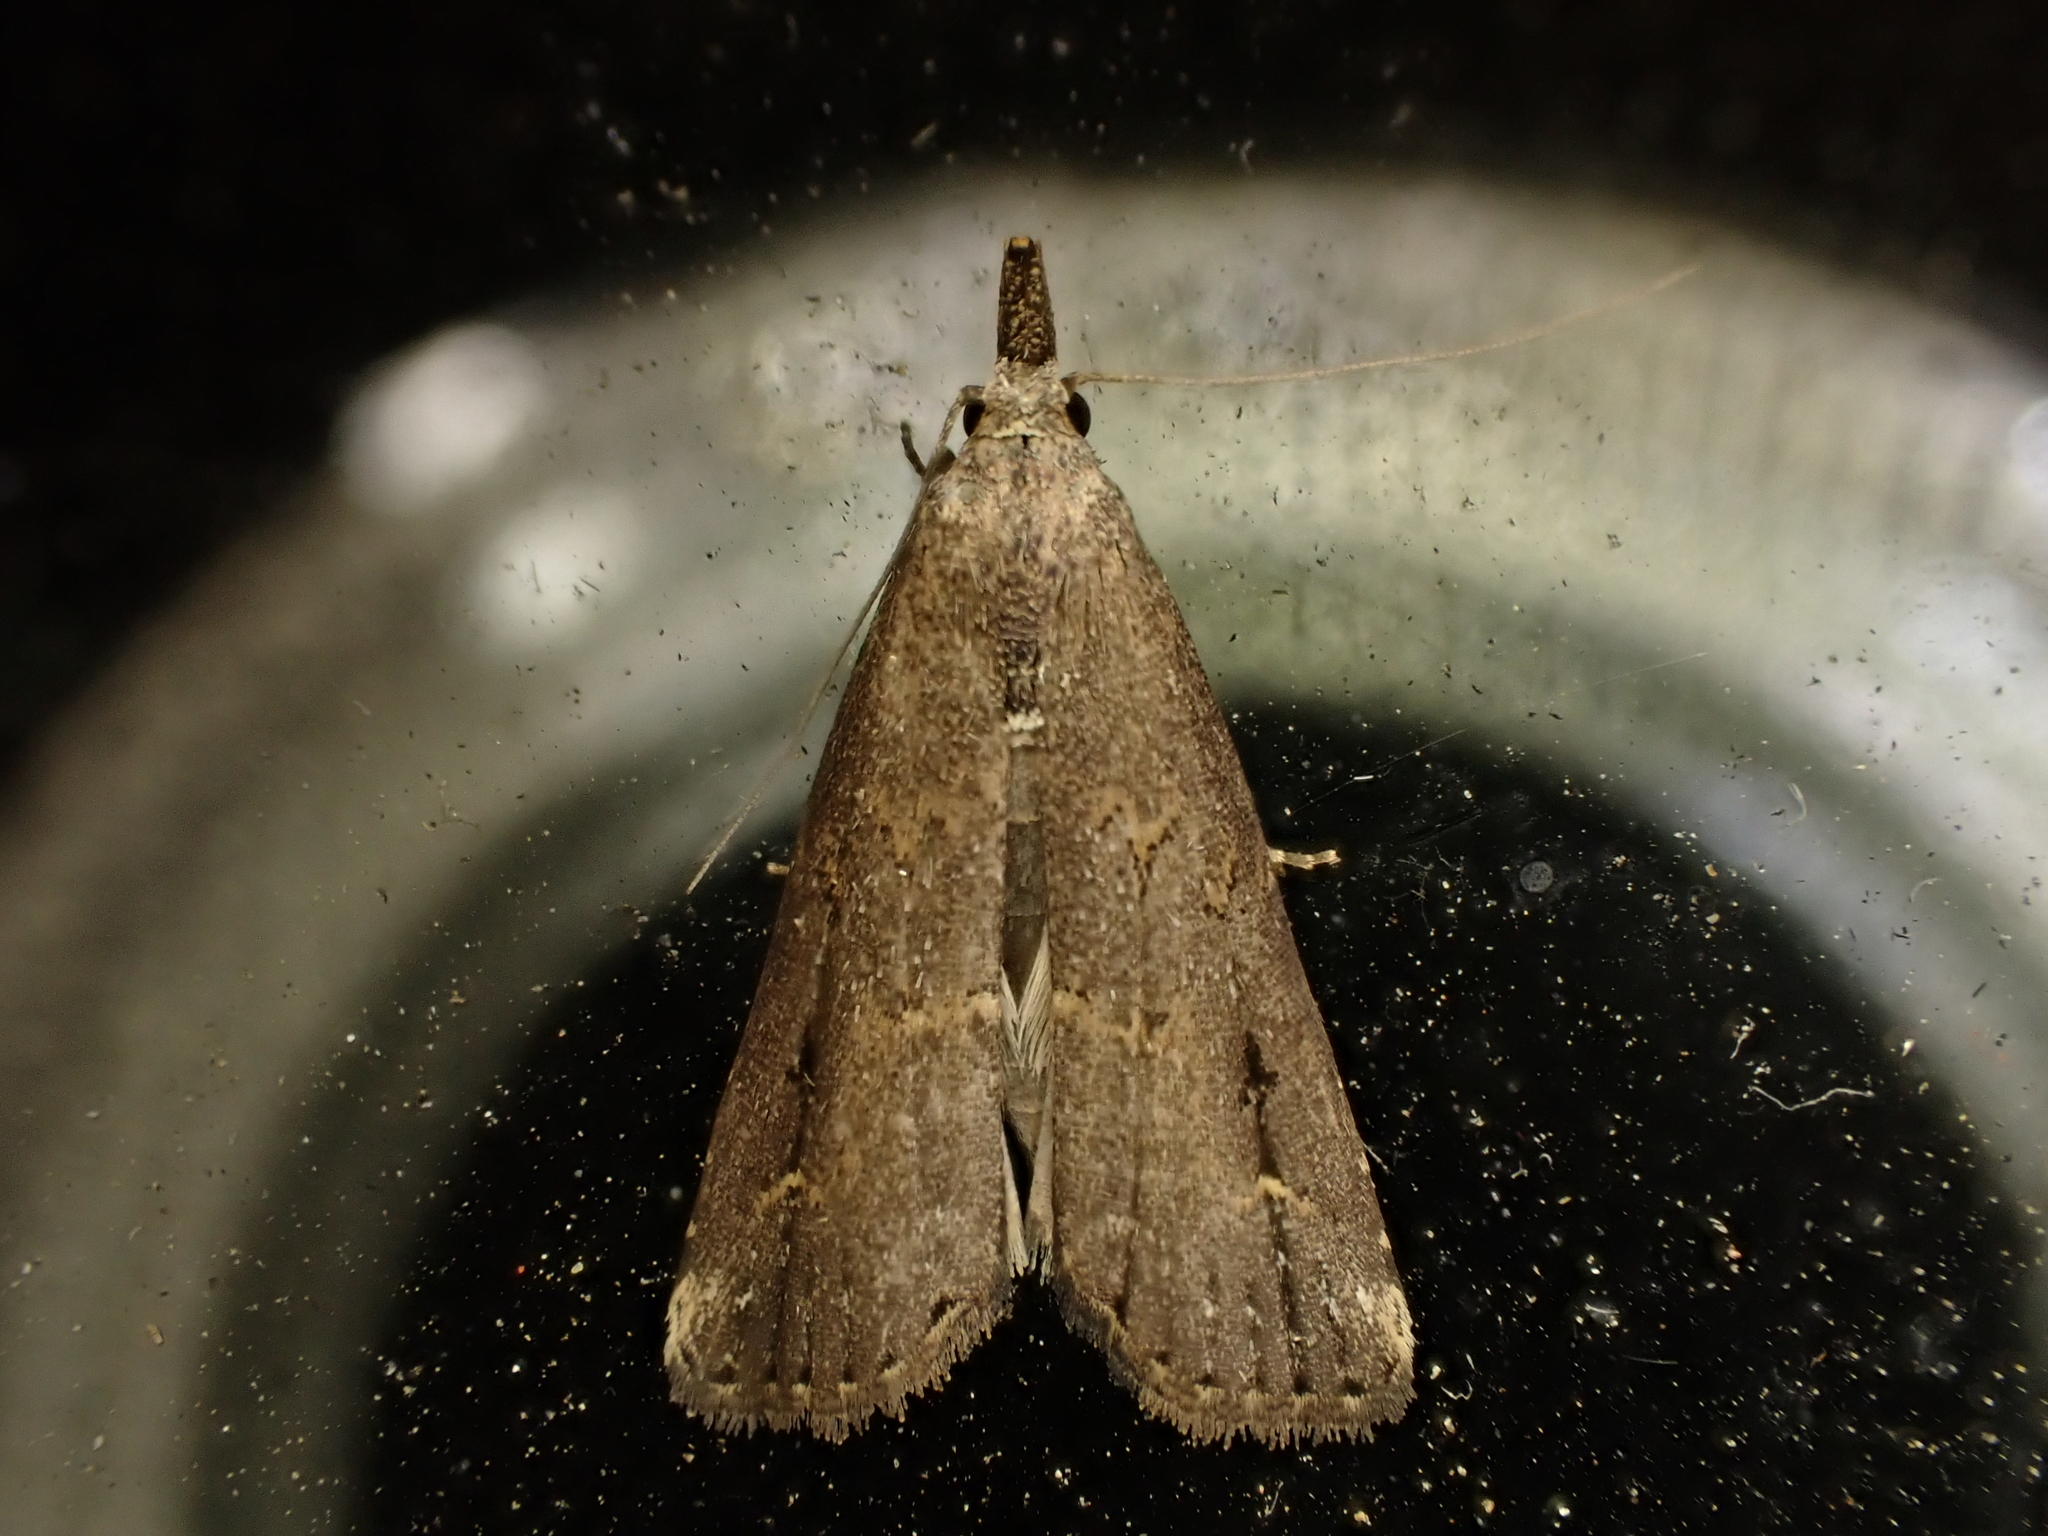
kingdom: Animalia
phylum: Arthropoda
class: Insecta
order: Lepidoptera
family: Erebidae
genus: Schrankia
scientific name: Schrankia costaestrigalis
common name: Pinion-streaked snout
